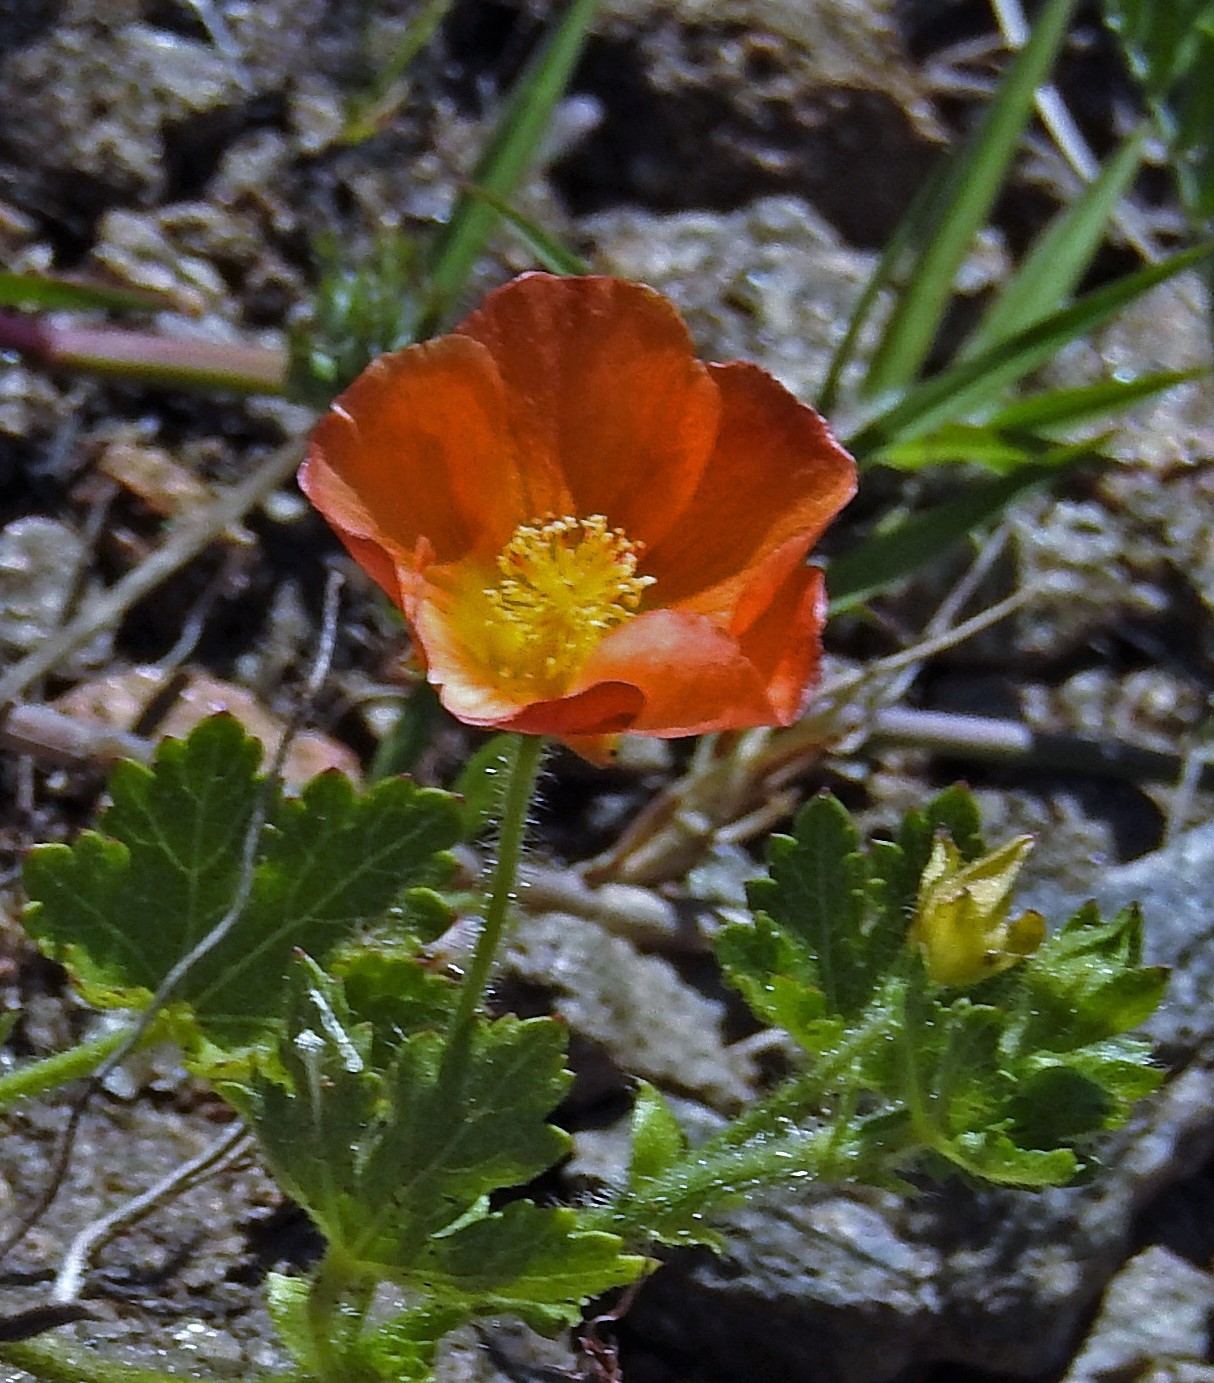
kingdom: Plantae
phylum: Tracheophyta
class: Magnoliopsida
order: Malvales
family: Malvaceae
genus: Modiolastrum
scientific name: Modiolastrum malvifolium
